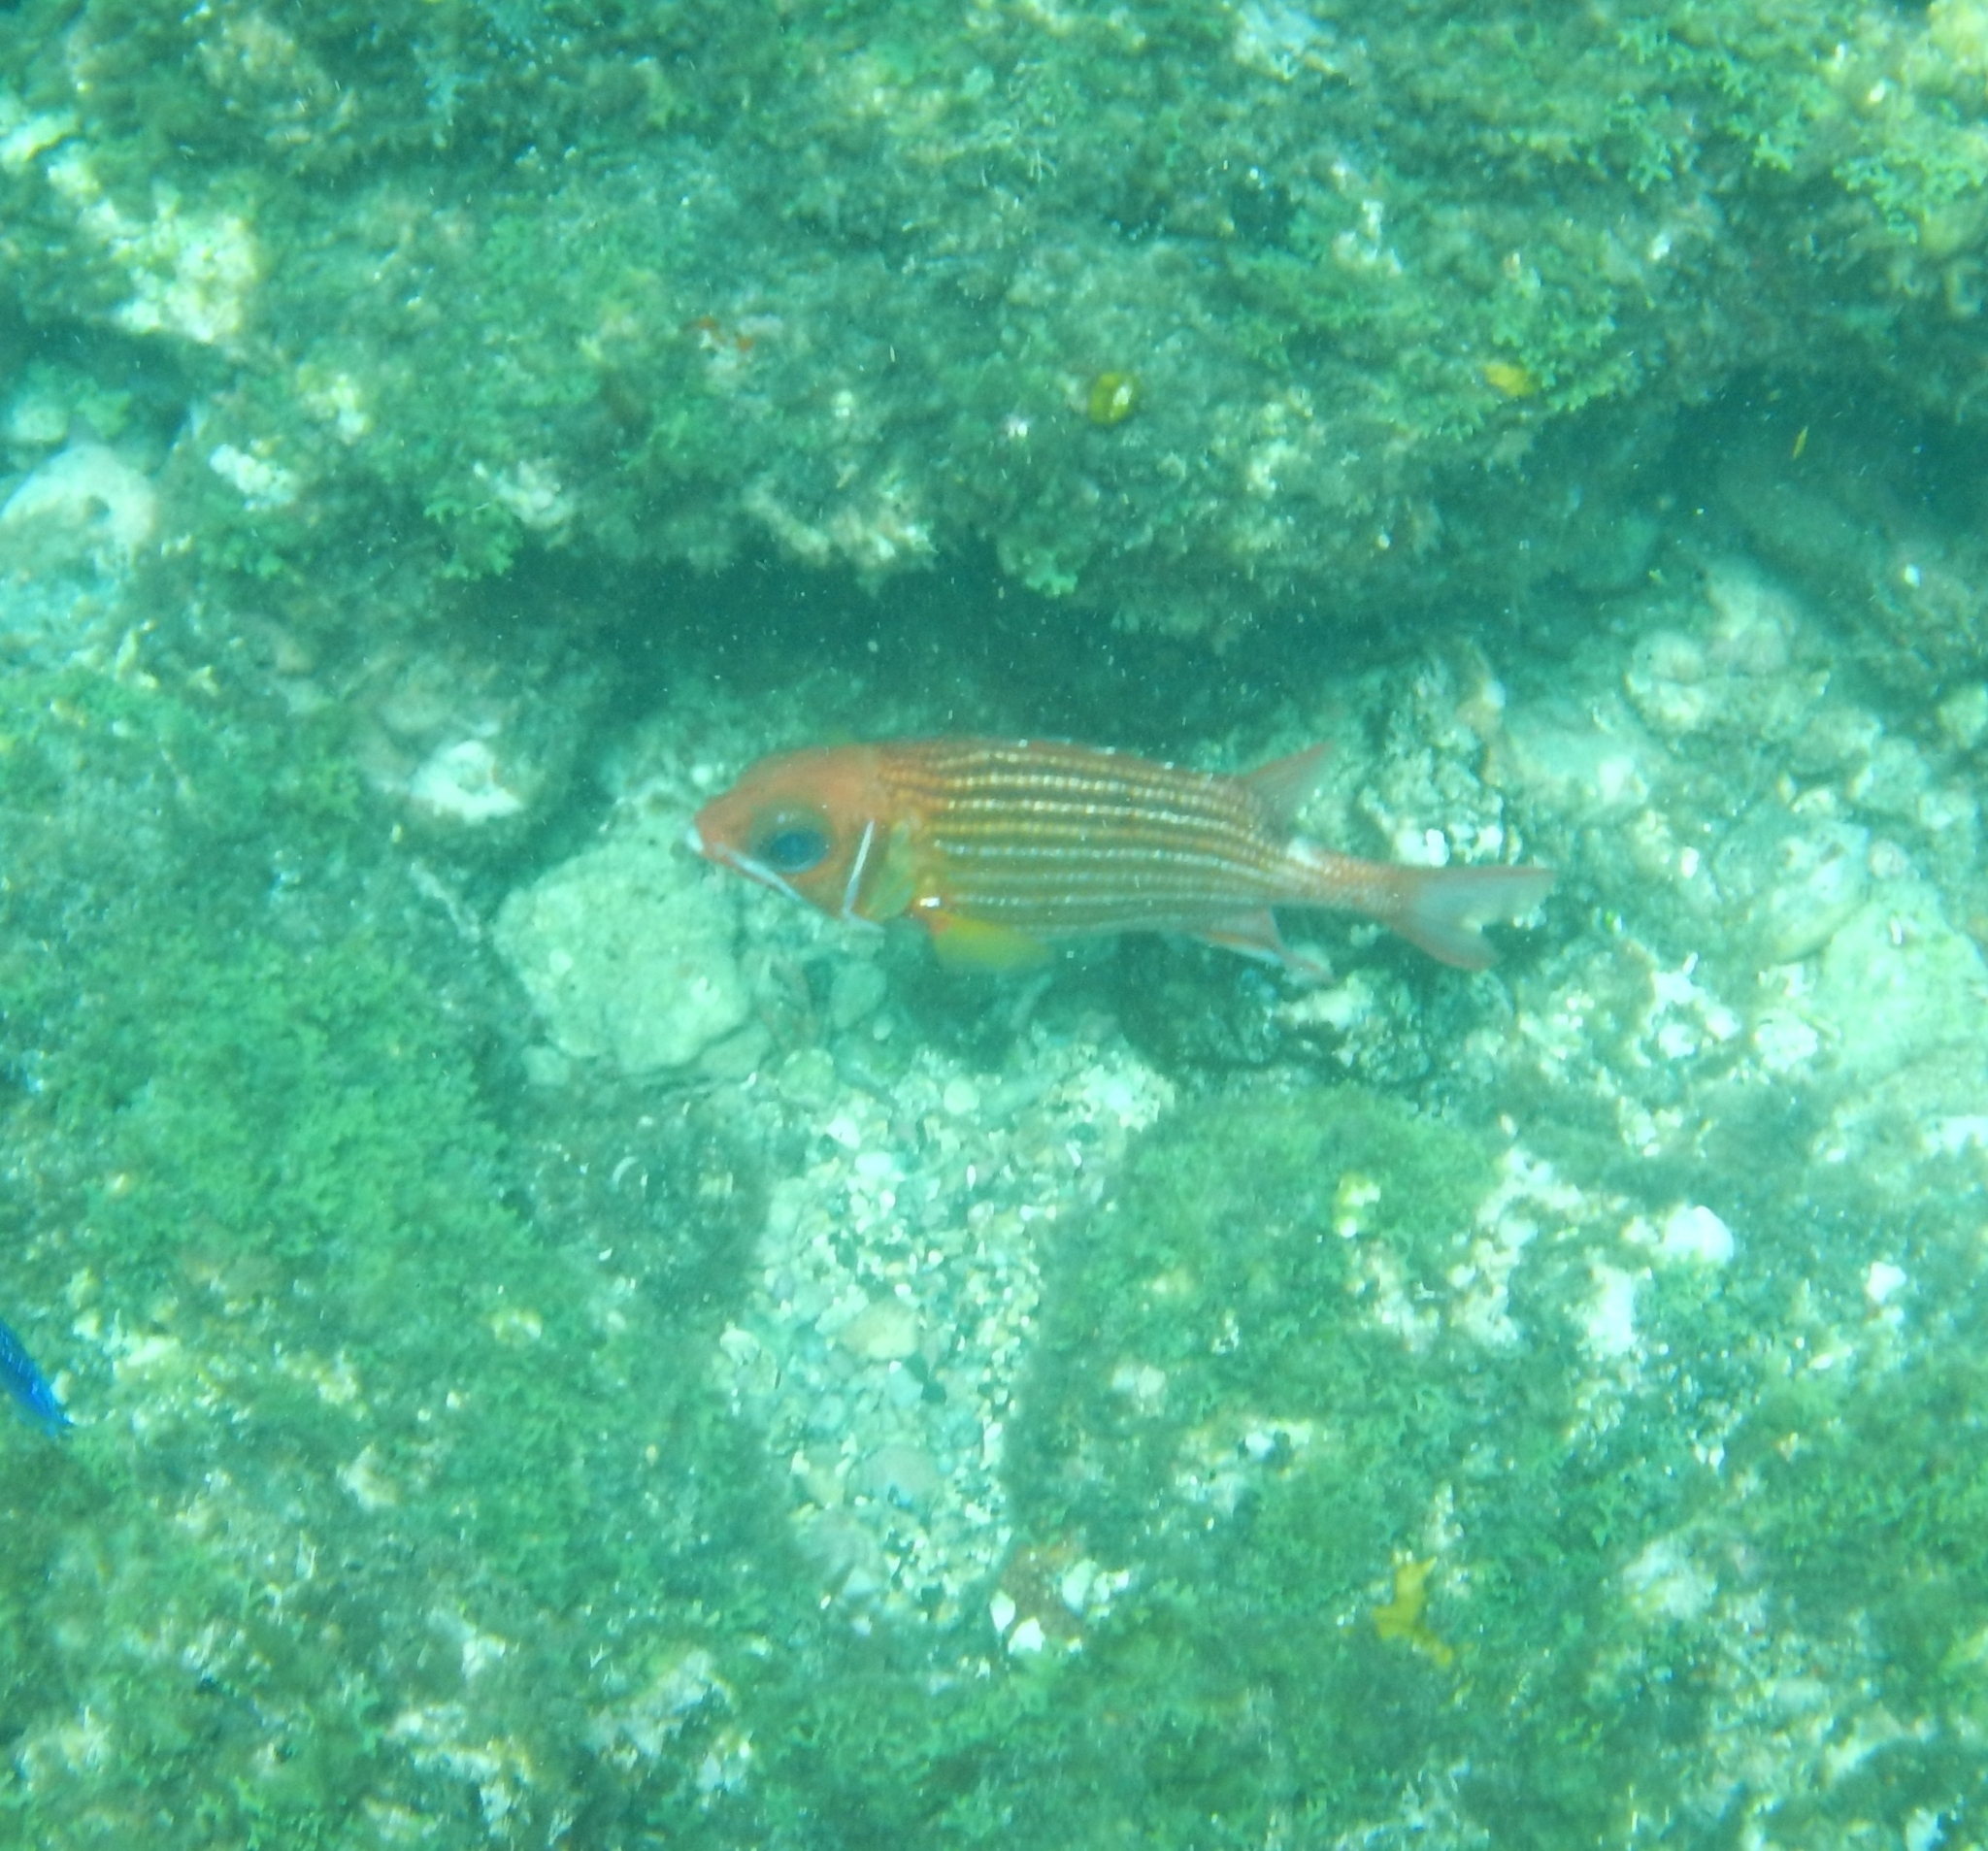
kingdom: Animalia
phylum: Chordata
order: Beryciformes
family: Holocentridae
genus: Sargocentron
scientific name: Sargocentron hastatum
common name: Red soldierfish
